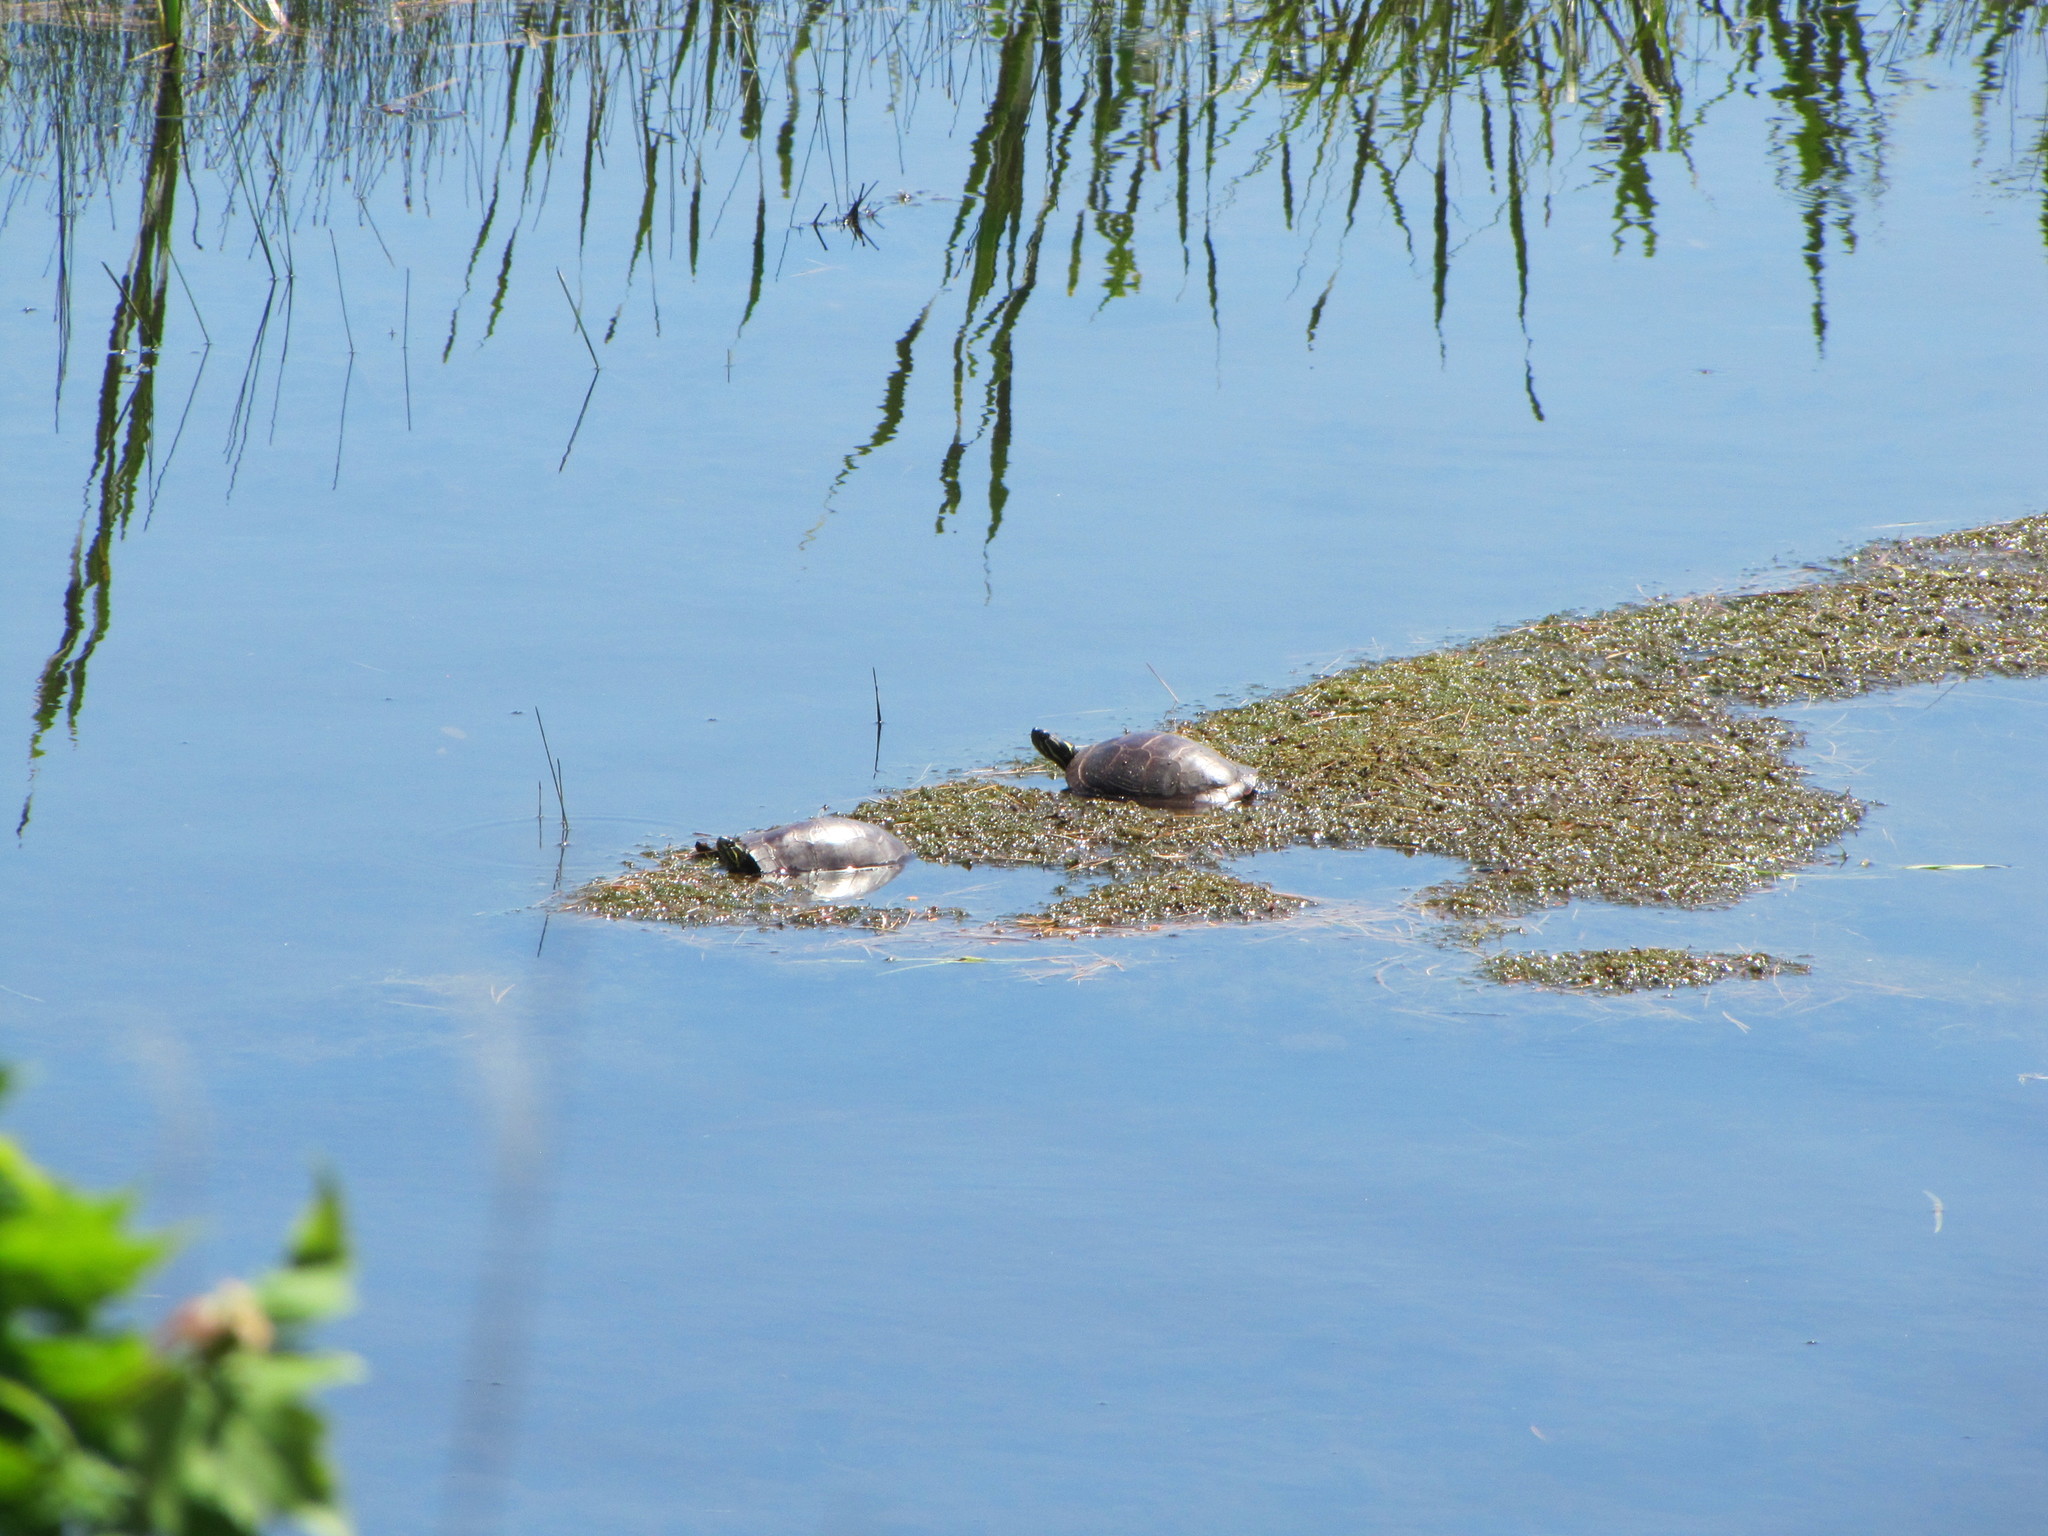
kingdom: Animalia
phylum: Chordata
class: Testudines
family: Emydidae
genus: Chrysemys
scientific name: Chrysemys picta
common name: Painted turtle
